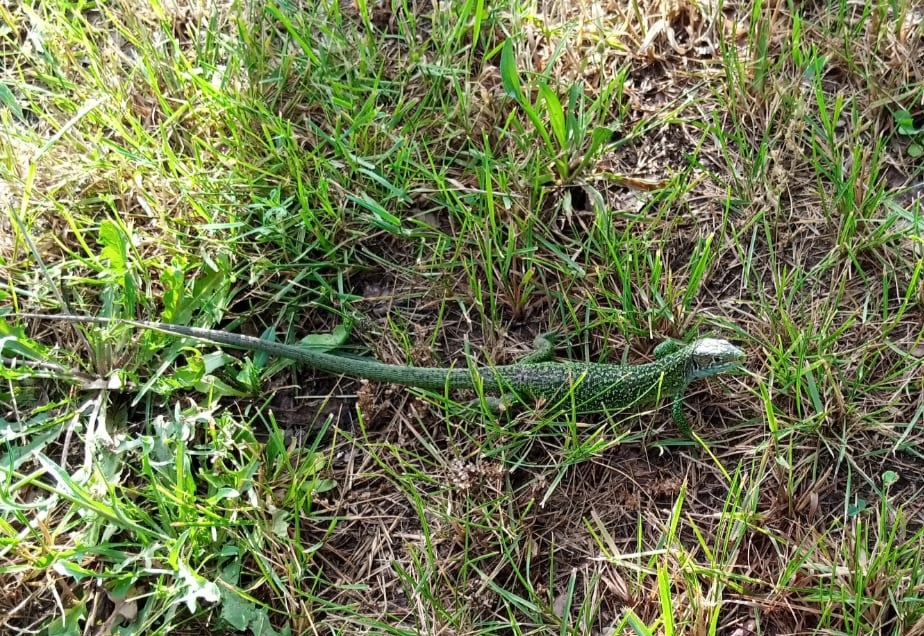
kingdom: Animalia
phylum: Chordata
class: Squamata
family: Lacertidae
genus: Lacerta
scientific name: Lacerta bilineata
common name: Western green lizard
